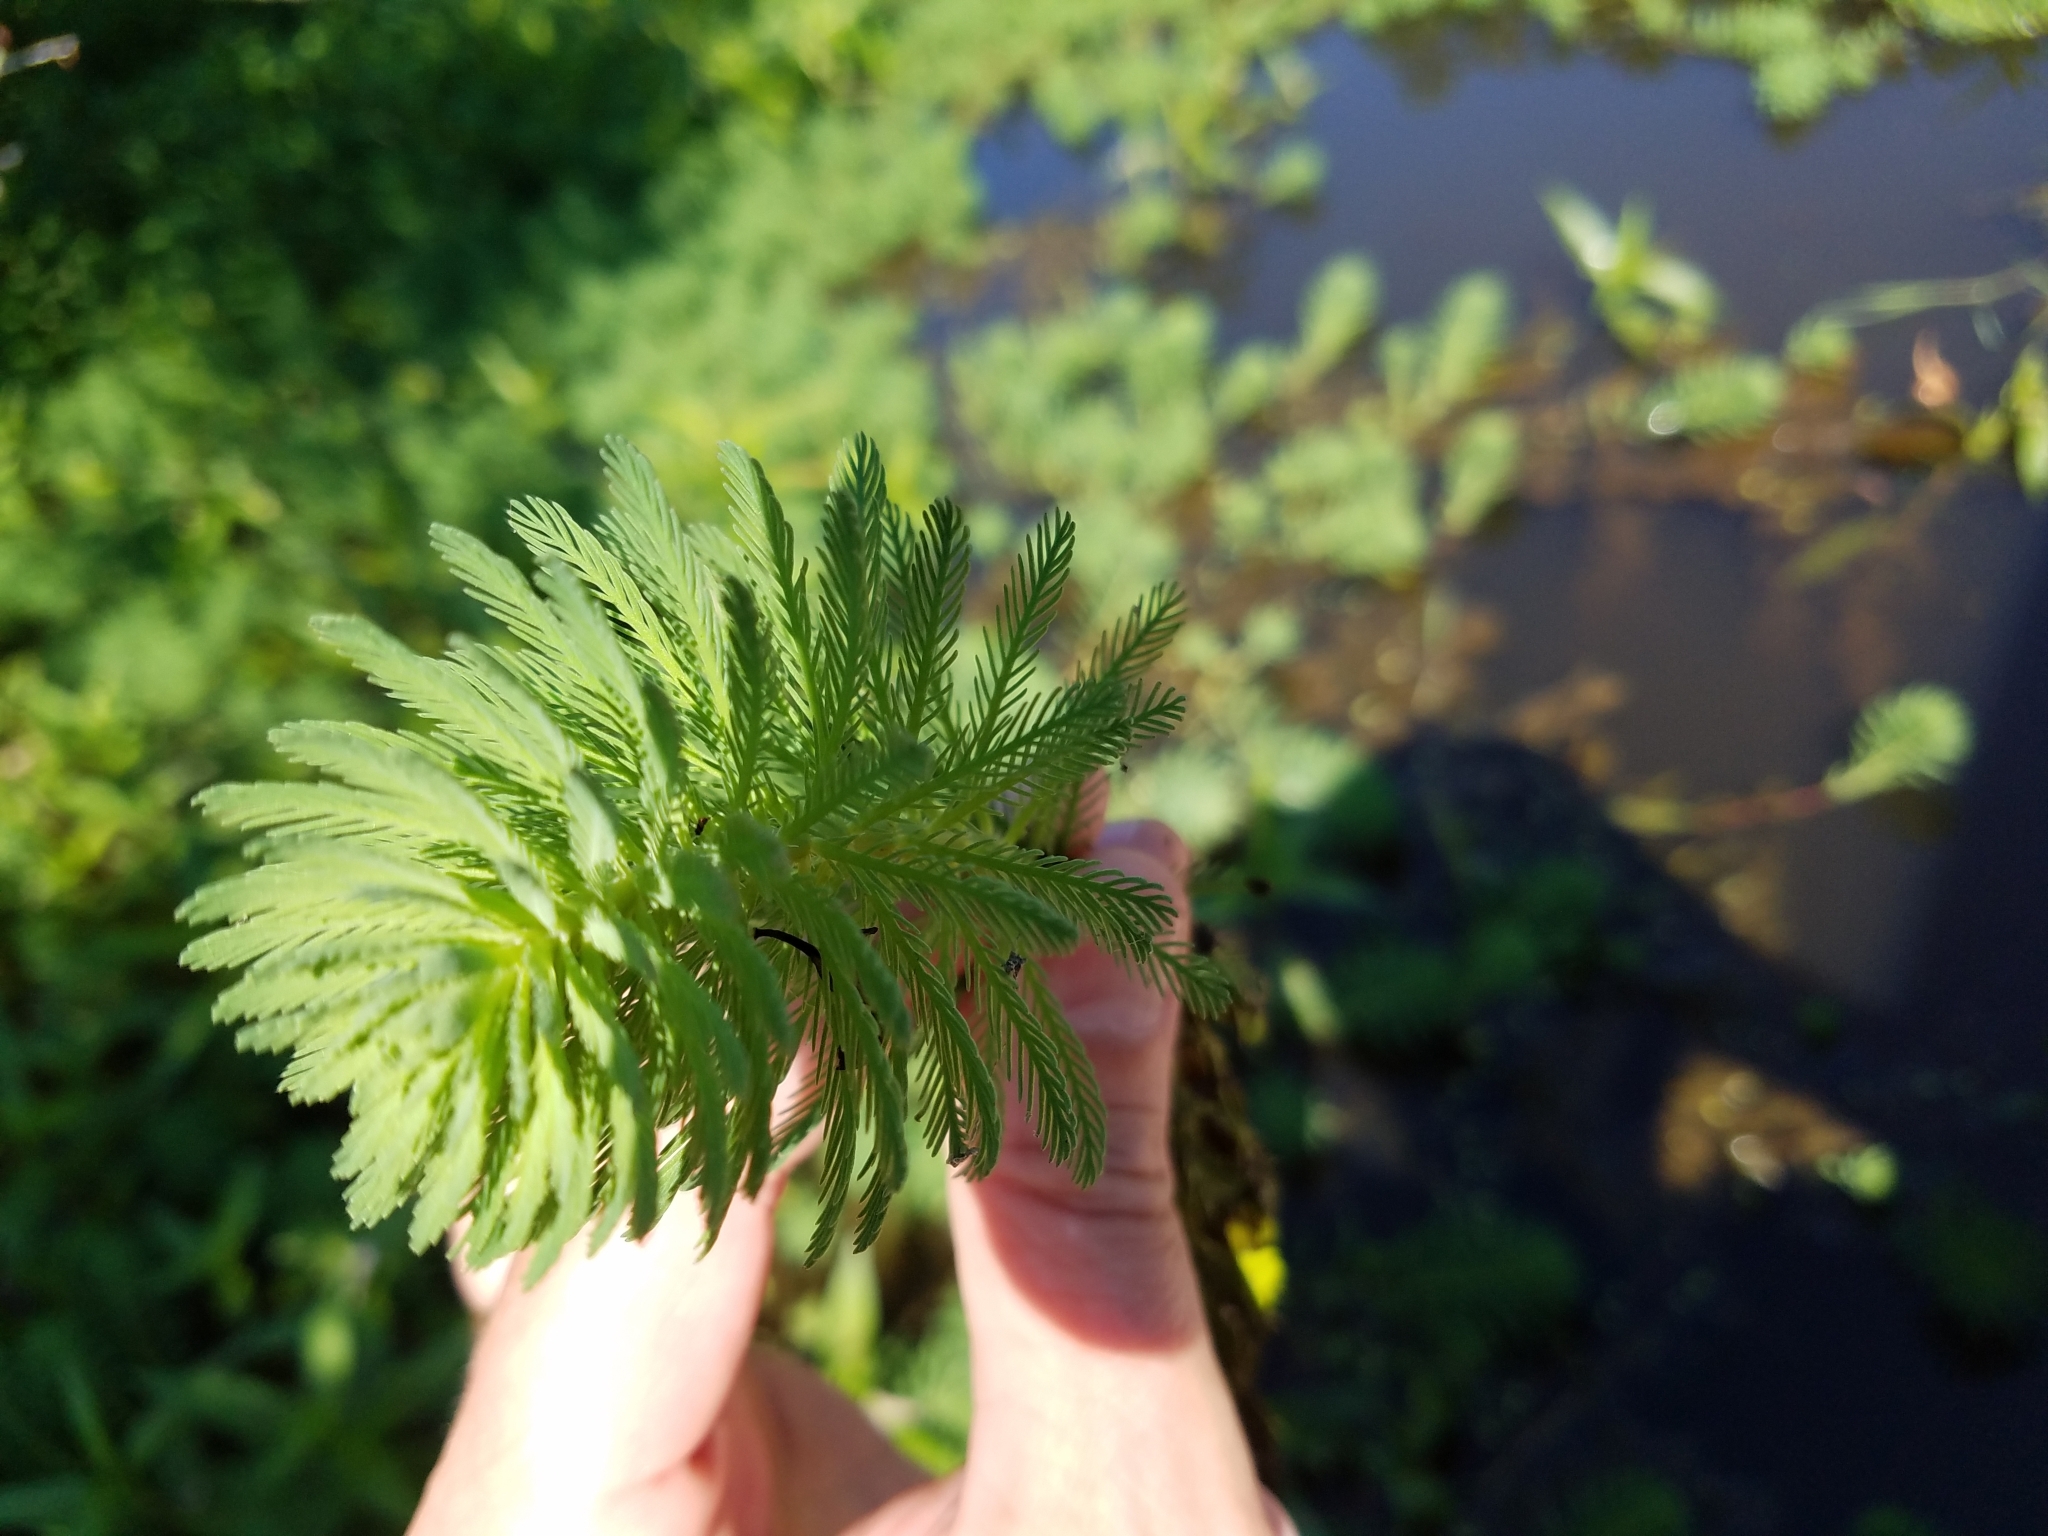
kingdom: Plantae
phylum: Tracheophyta
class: Magnoliopsida
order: Saxifragales
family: Haloragaceae
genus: Myriophyllum
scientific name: Myriophyllum aquaticum
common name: Parrot's feather
